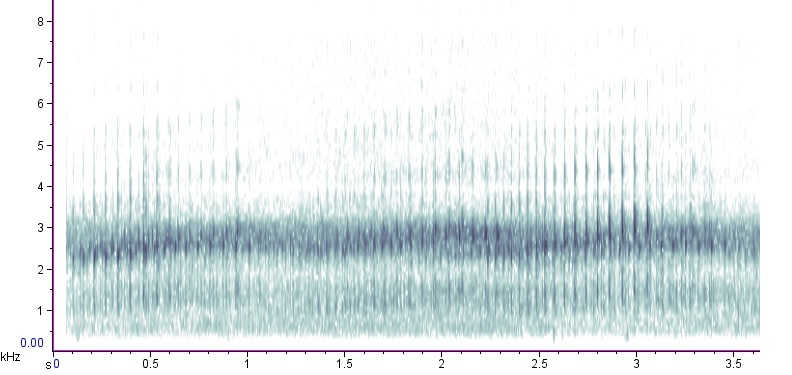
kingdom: Animalia
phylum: Chordata
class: Amphibia
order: Anura
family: Hylidae
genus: Pseudacris
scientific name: Pseudacris feriarum
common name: Upland chorus frog
